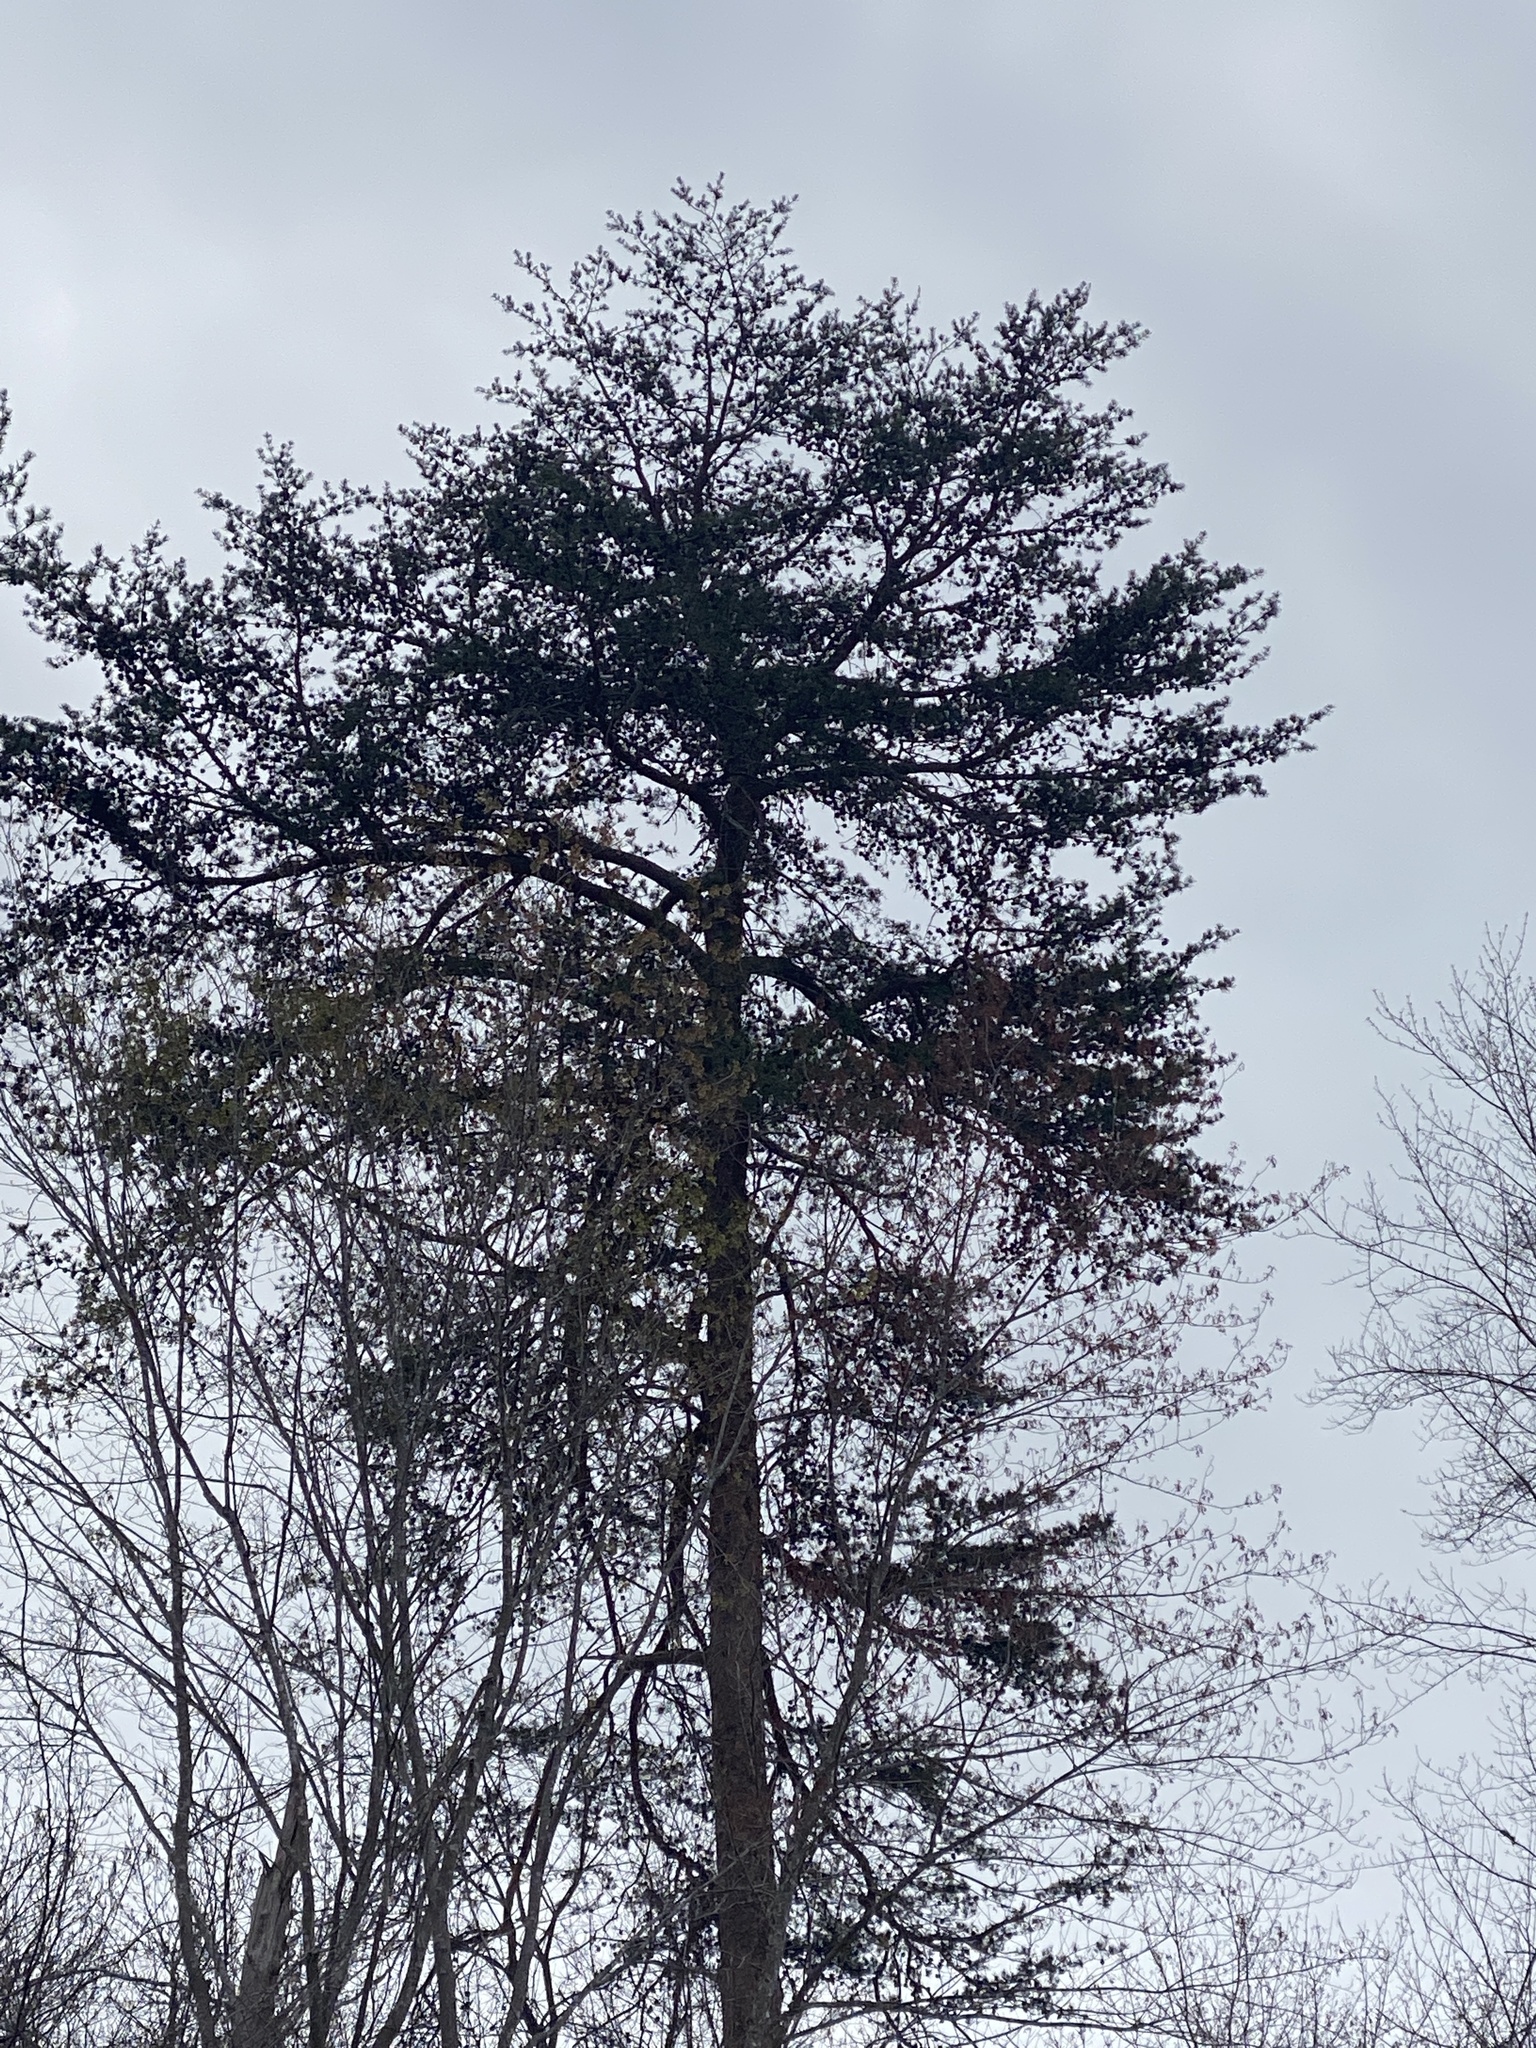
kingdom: Plantae
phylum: Tracheophyta
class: Pinopsida
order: Pinales
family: Pinaceae
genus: Pinus
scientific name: Pinus virginiana
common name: Scrub pine
